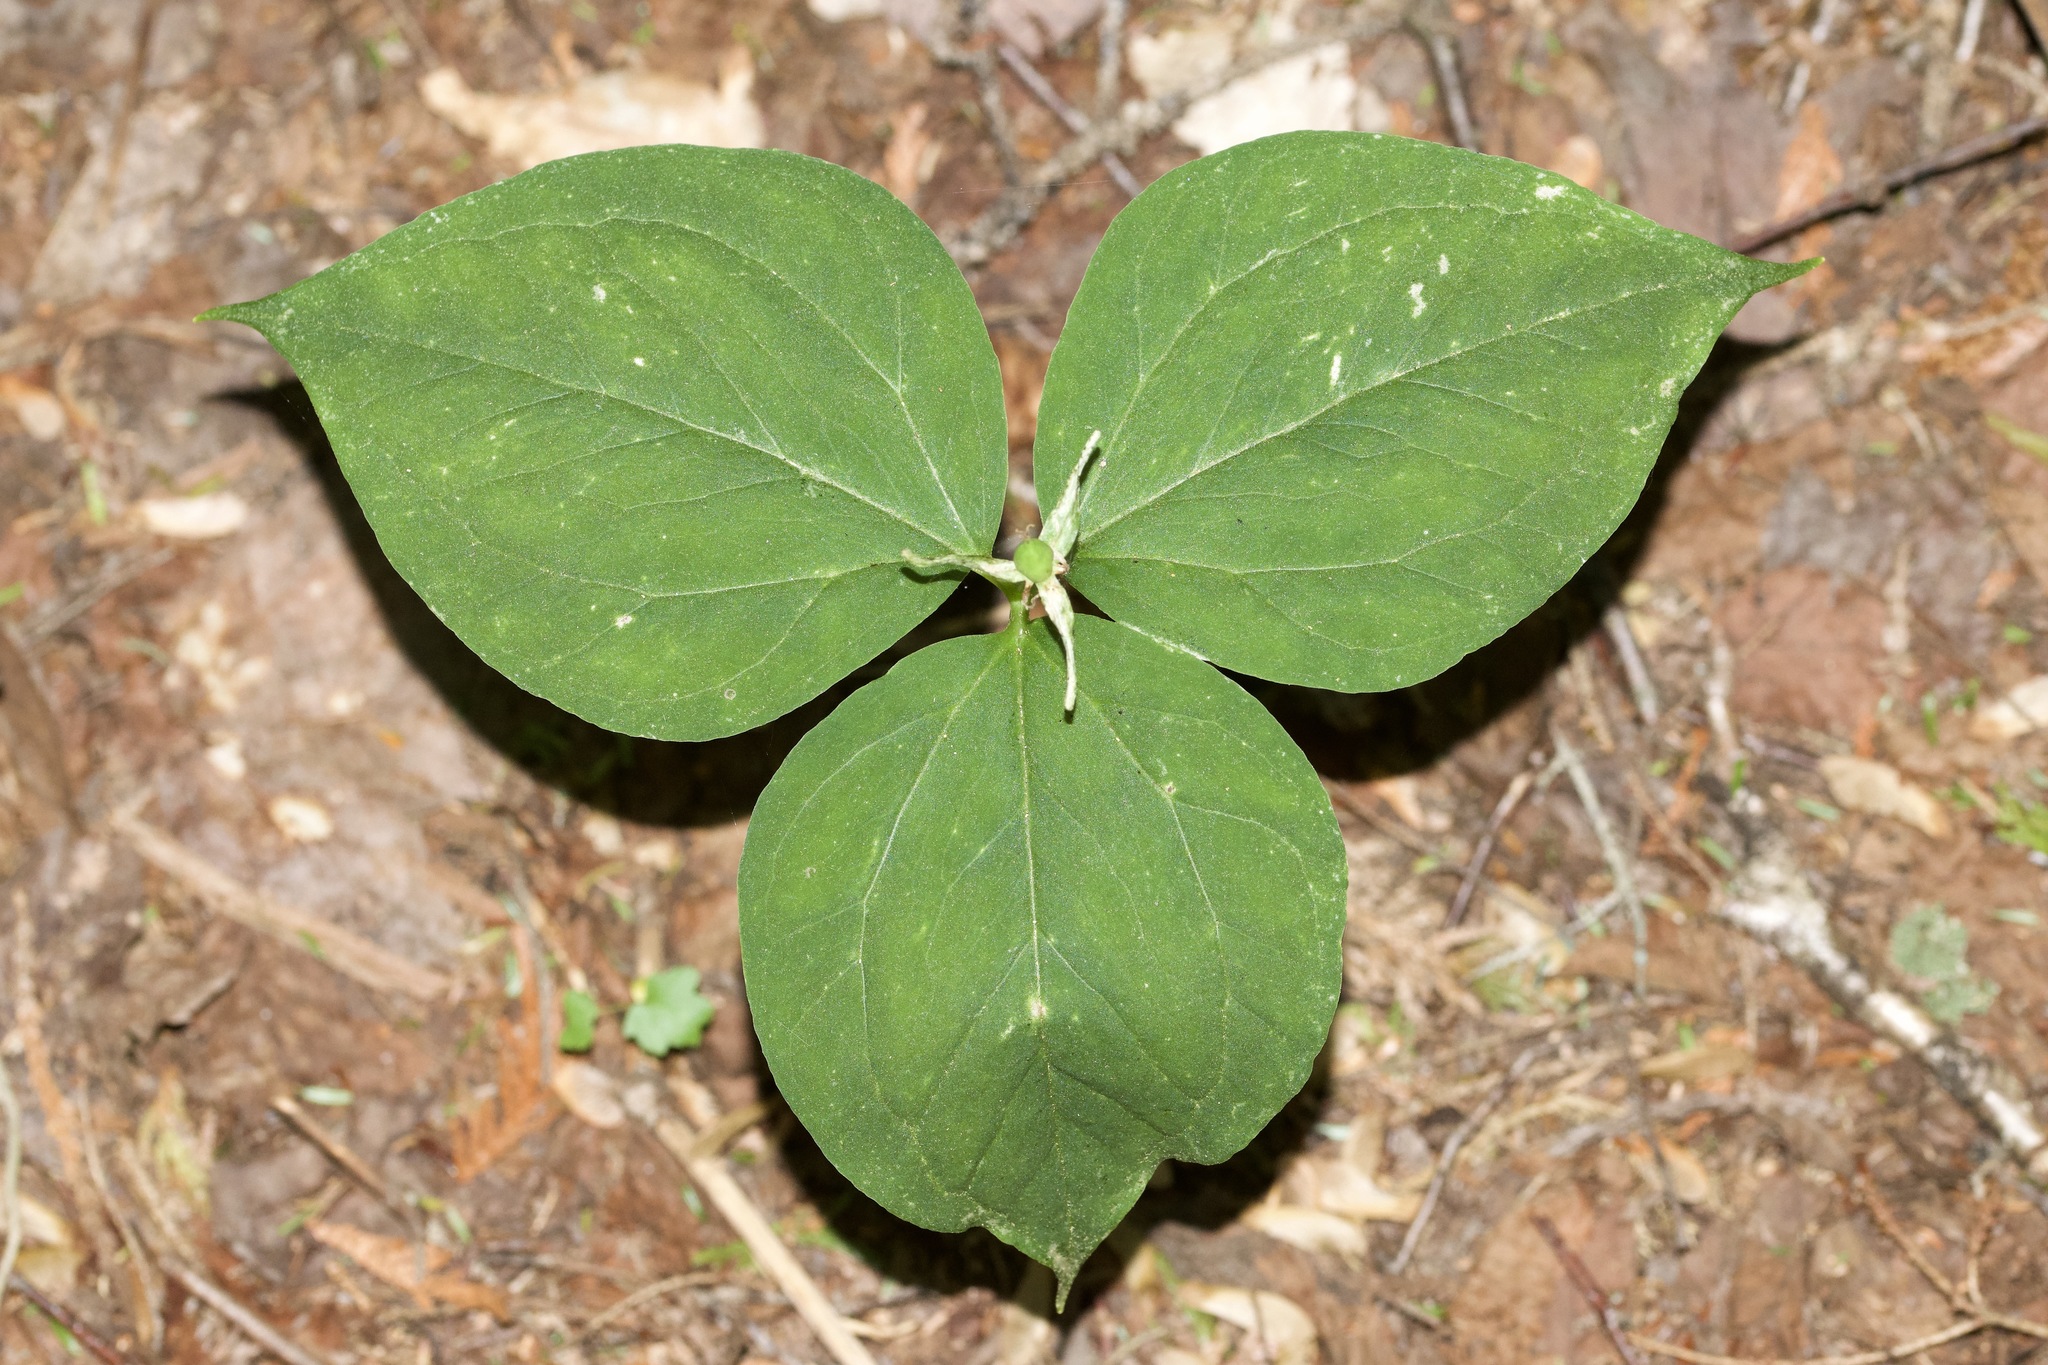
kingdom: Plantae
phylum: Tracheophyta
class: Liliopsida
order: Liliales
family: Melanthiaceae
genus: Trillium
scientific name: Trillium undulatum
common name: Paint trillium
